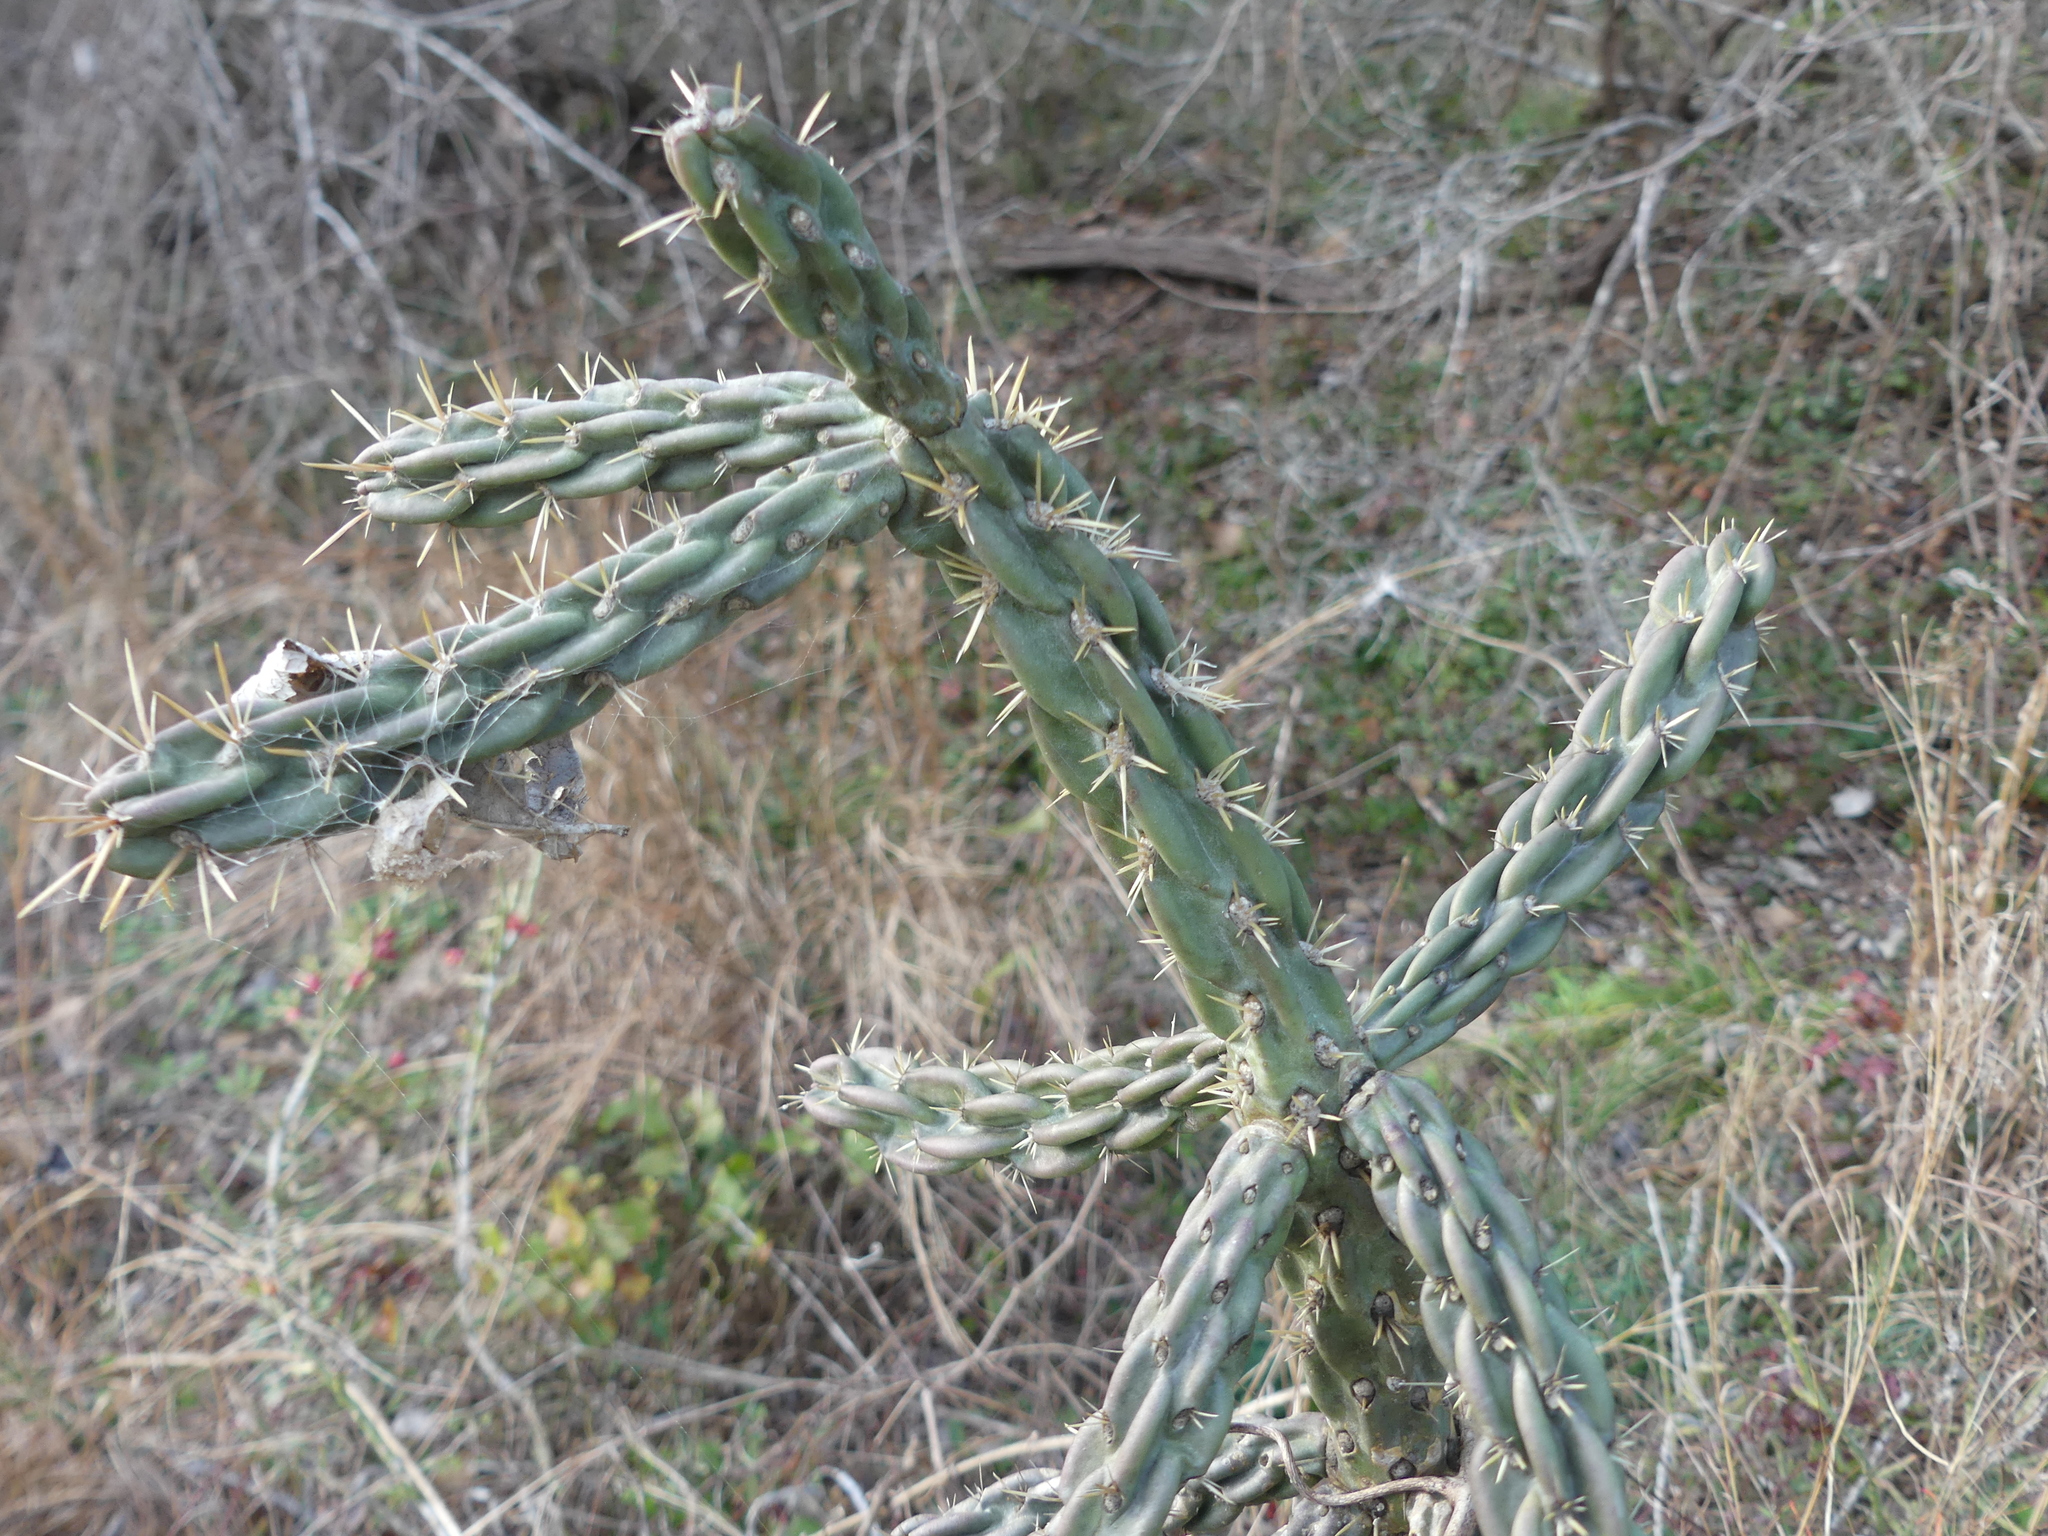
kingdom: Plantae
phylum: Tracheophyta
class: Magnoliopsida
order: Caryophyllales
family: Cactaceae
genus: Cylindropuntia
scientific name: Cylindropuntia imbricata
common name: Candelabrum cactus
